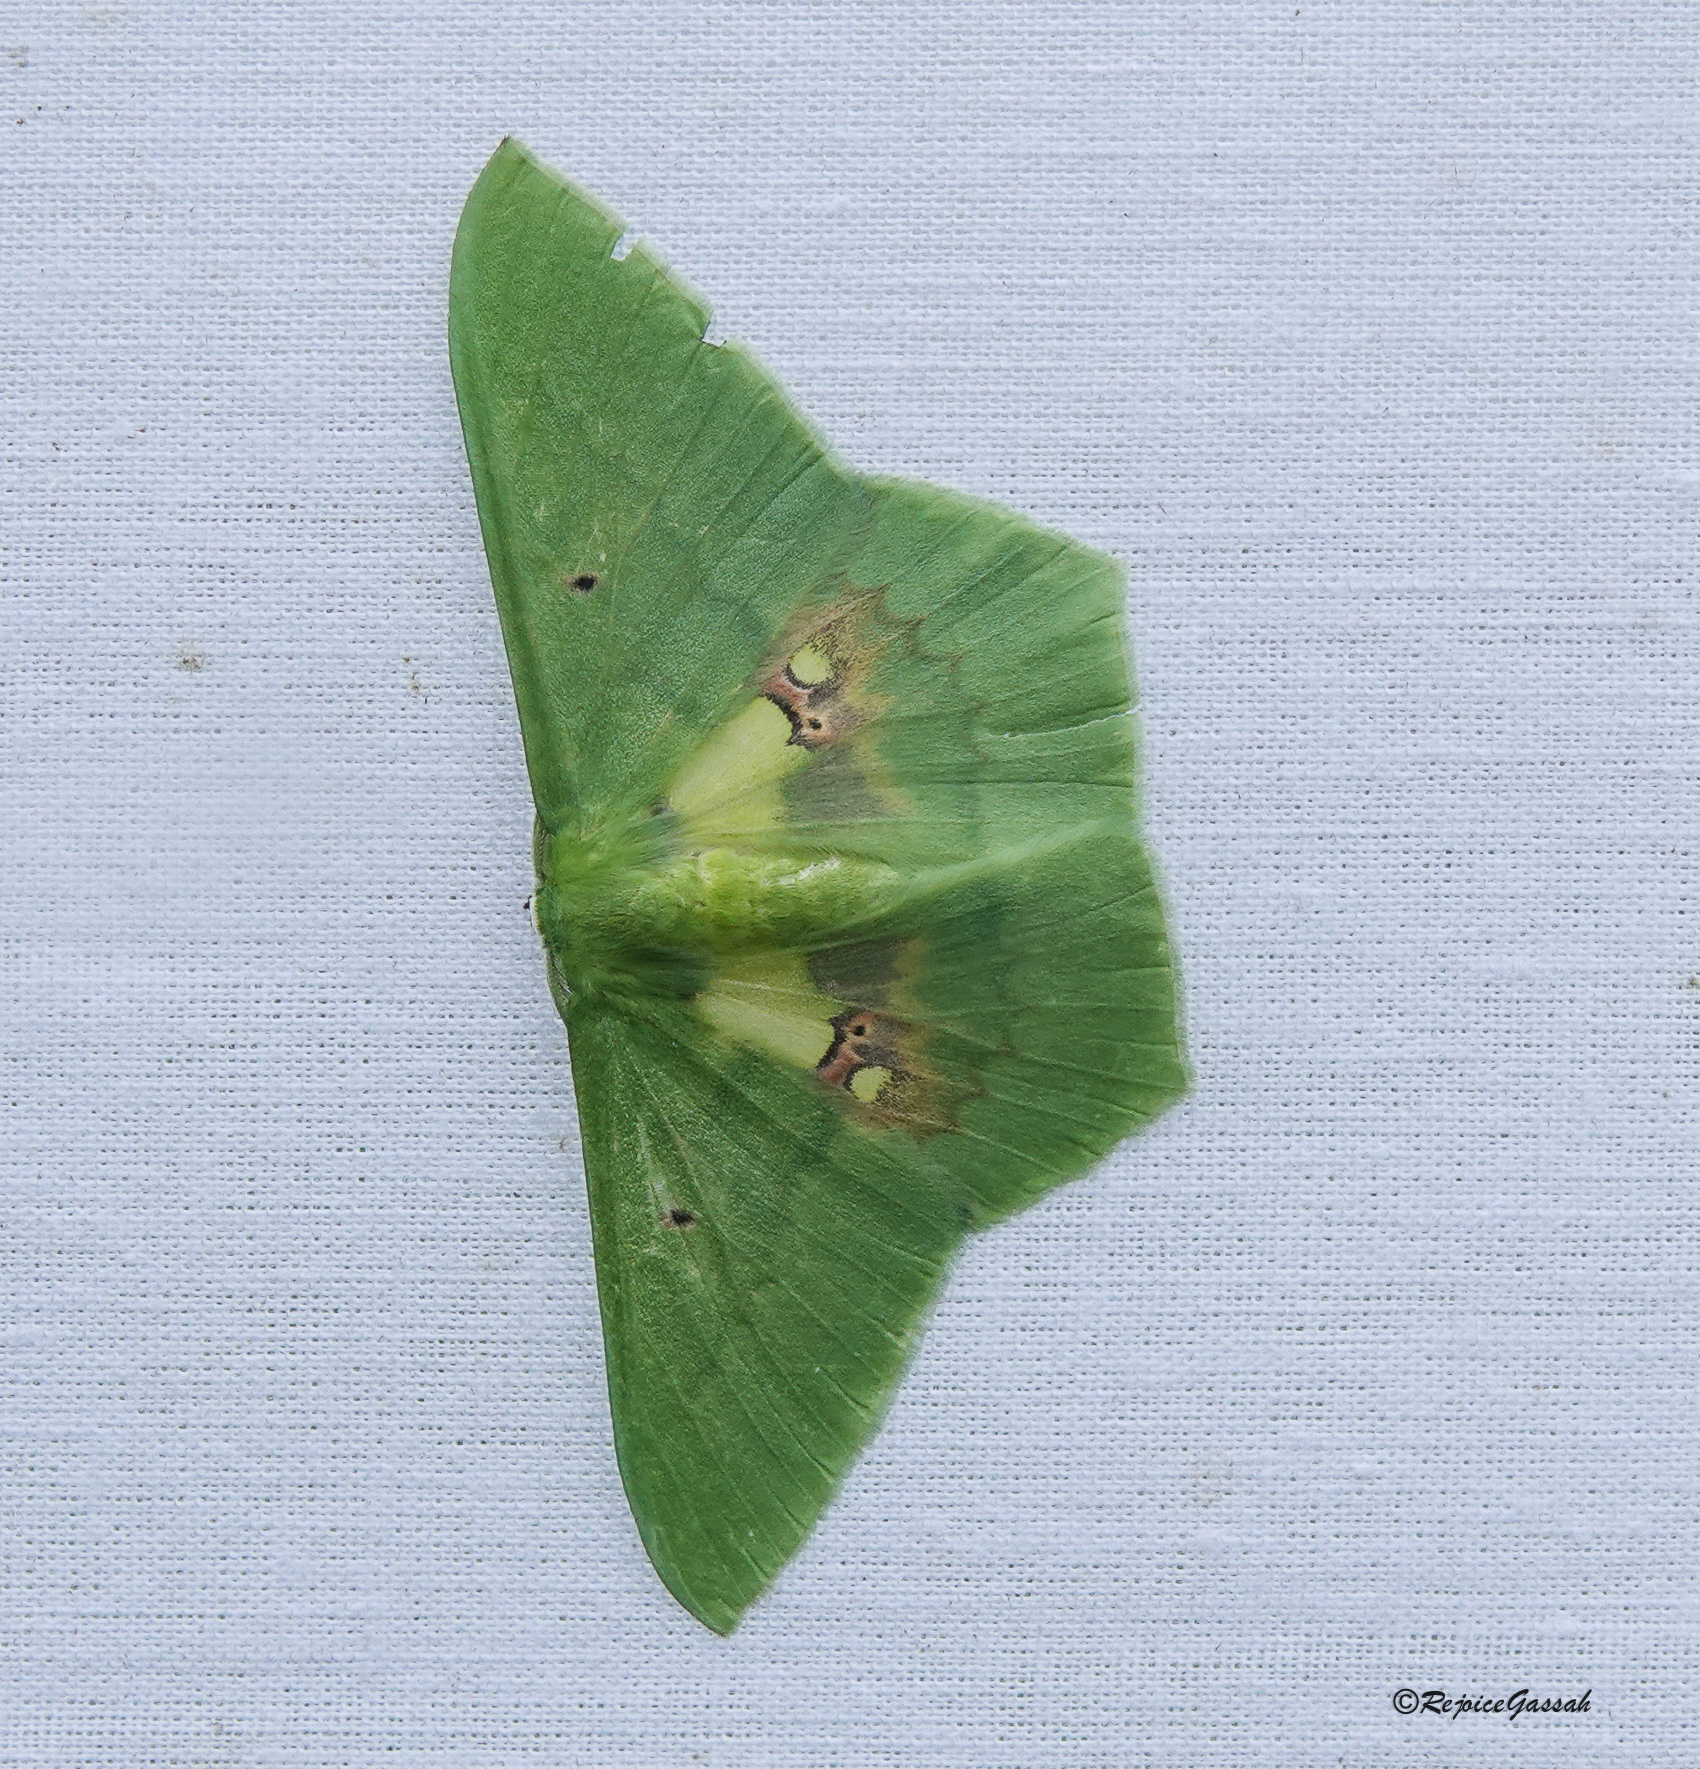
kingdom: Animalia
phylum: Arthropoda
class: Insecta
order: Lepidoptera
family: Geometridae
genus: Aporandria
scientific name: Aporandria specularia
